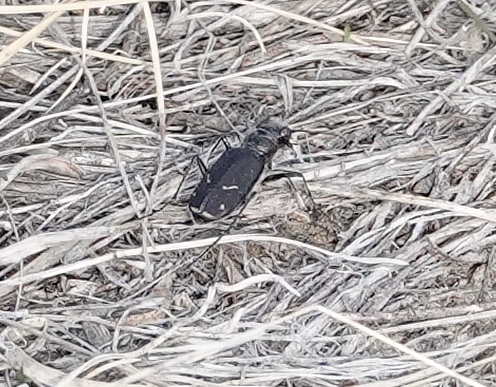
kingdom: Animalia
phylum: Arthropoda
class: Insecta
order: Coleoptera
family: Carabidae
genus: Cicindela
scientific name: Cicindela purpurea
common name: Cow path tiger beetle
